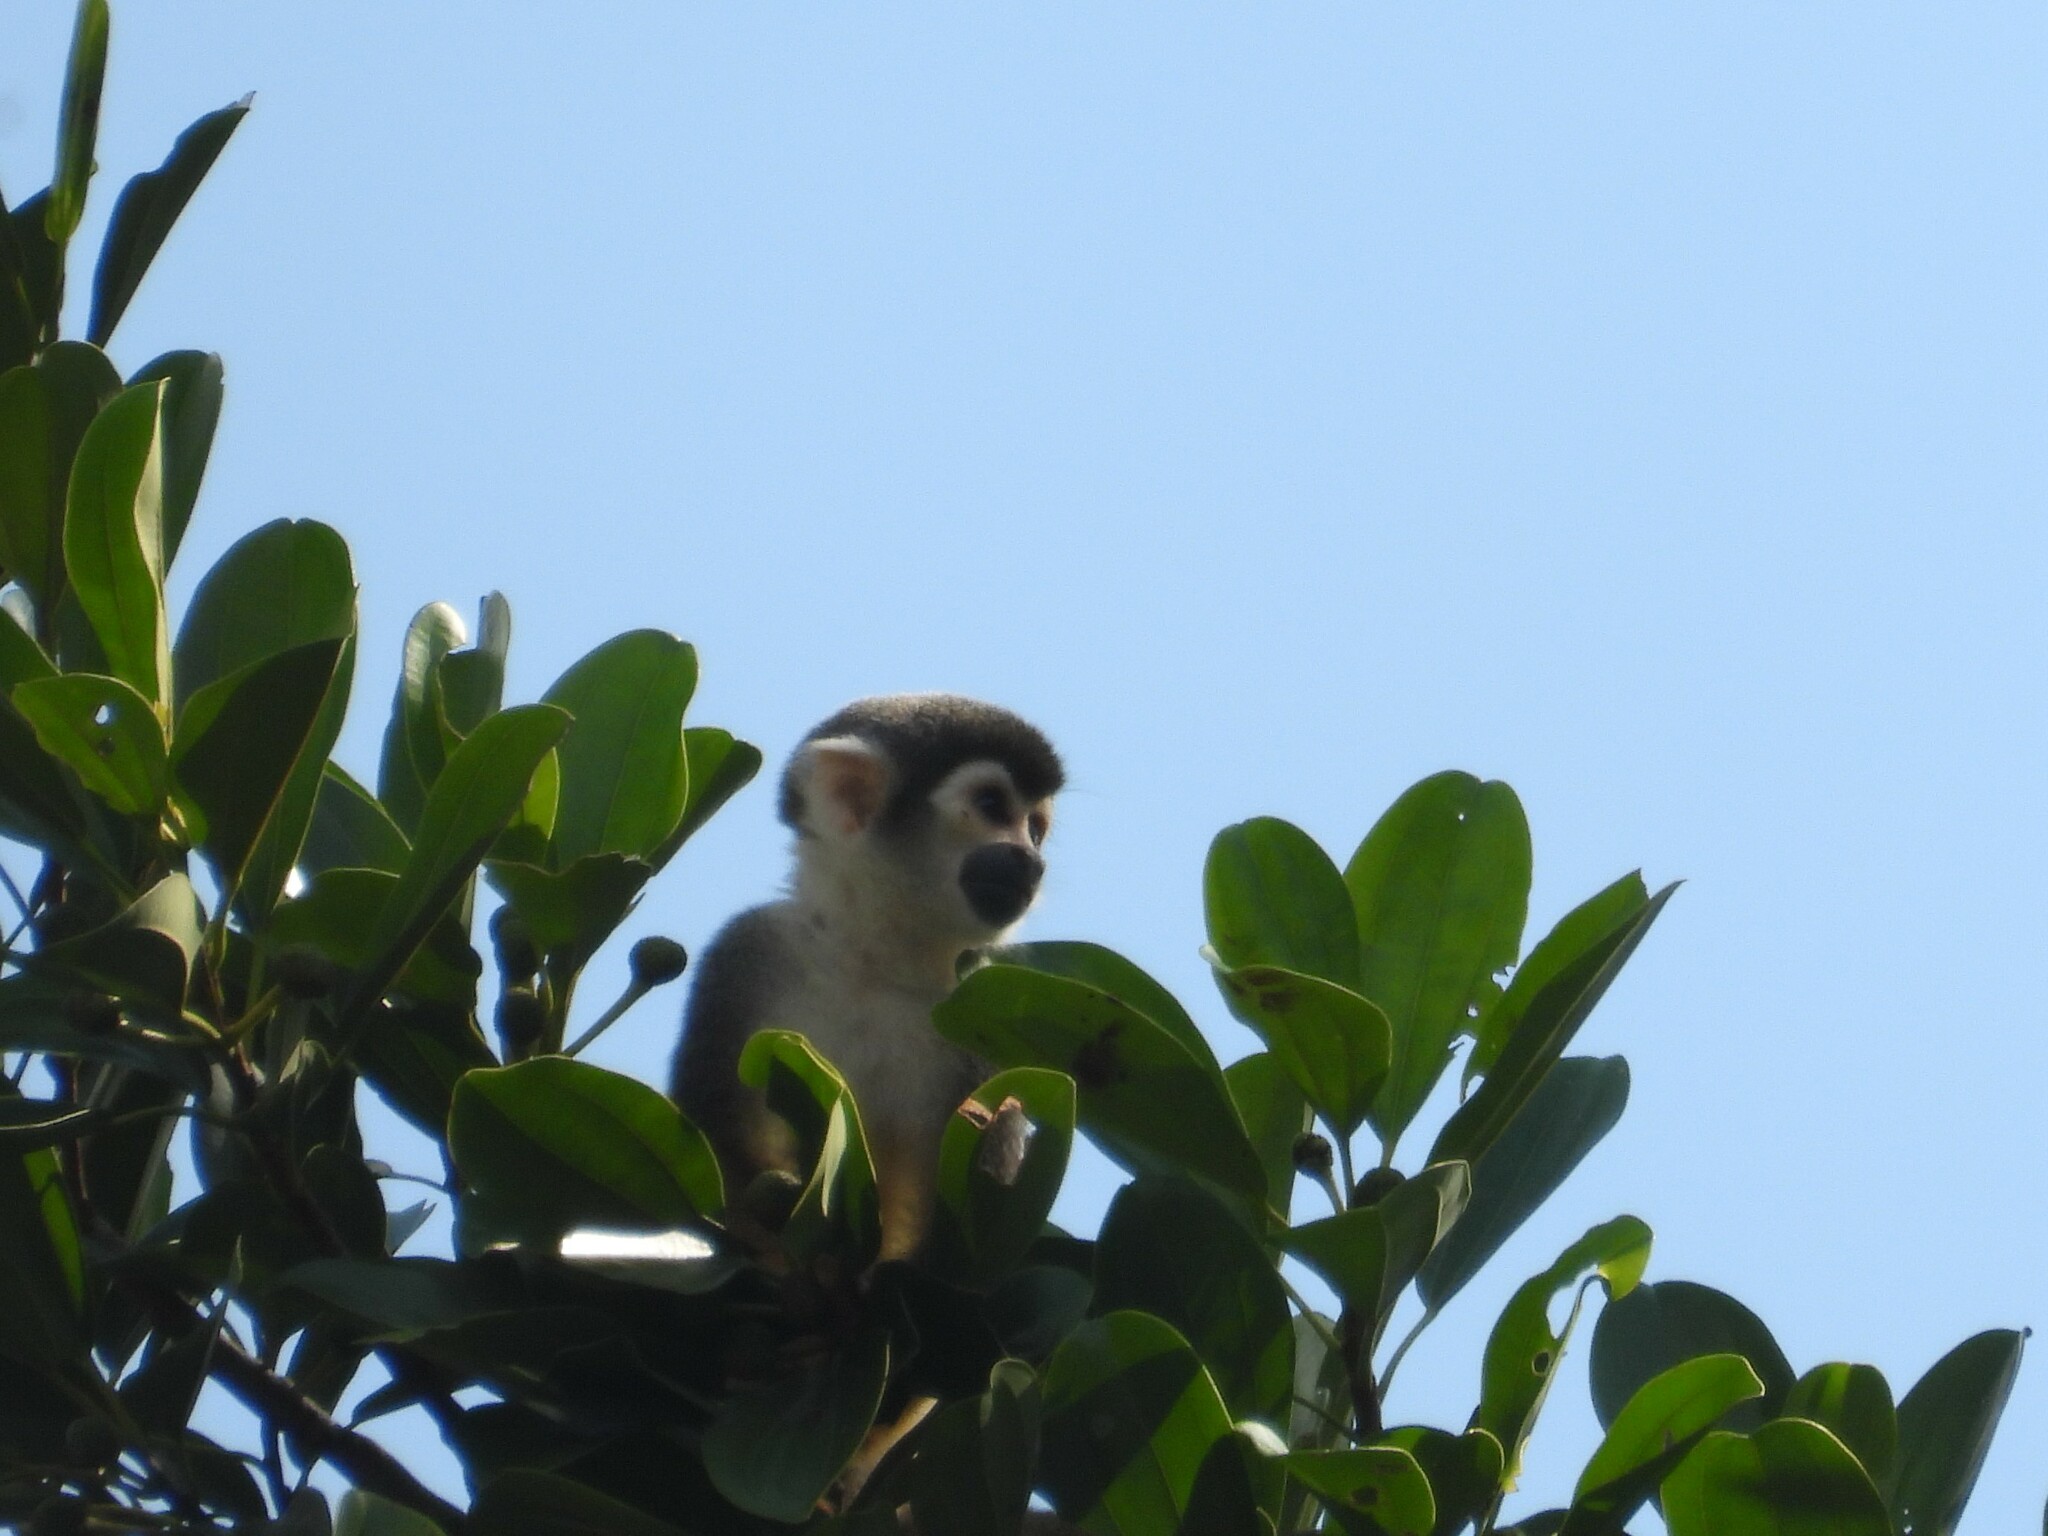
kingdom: Animalia
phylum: Chordata
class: Mammalia
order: Primates
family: Cebidae
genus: Saimiri
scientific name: Saimiri cassiquiarensis
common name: Humboldt’s squirrel monkey
